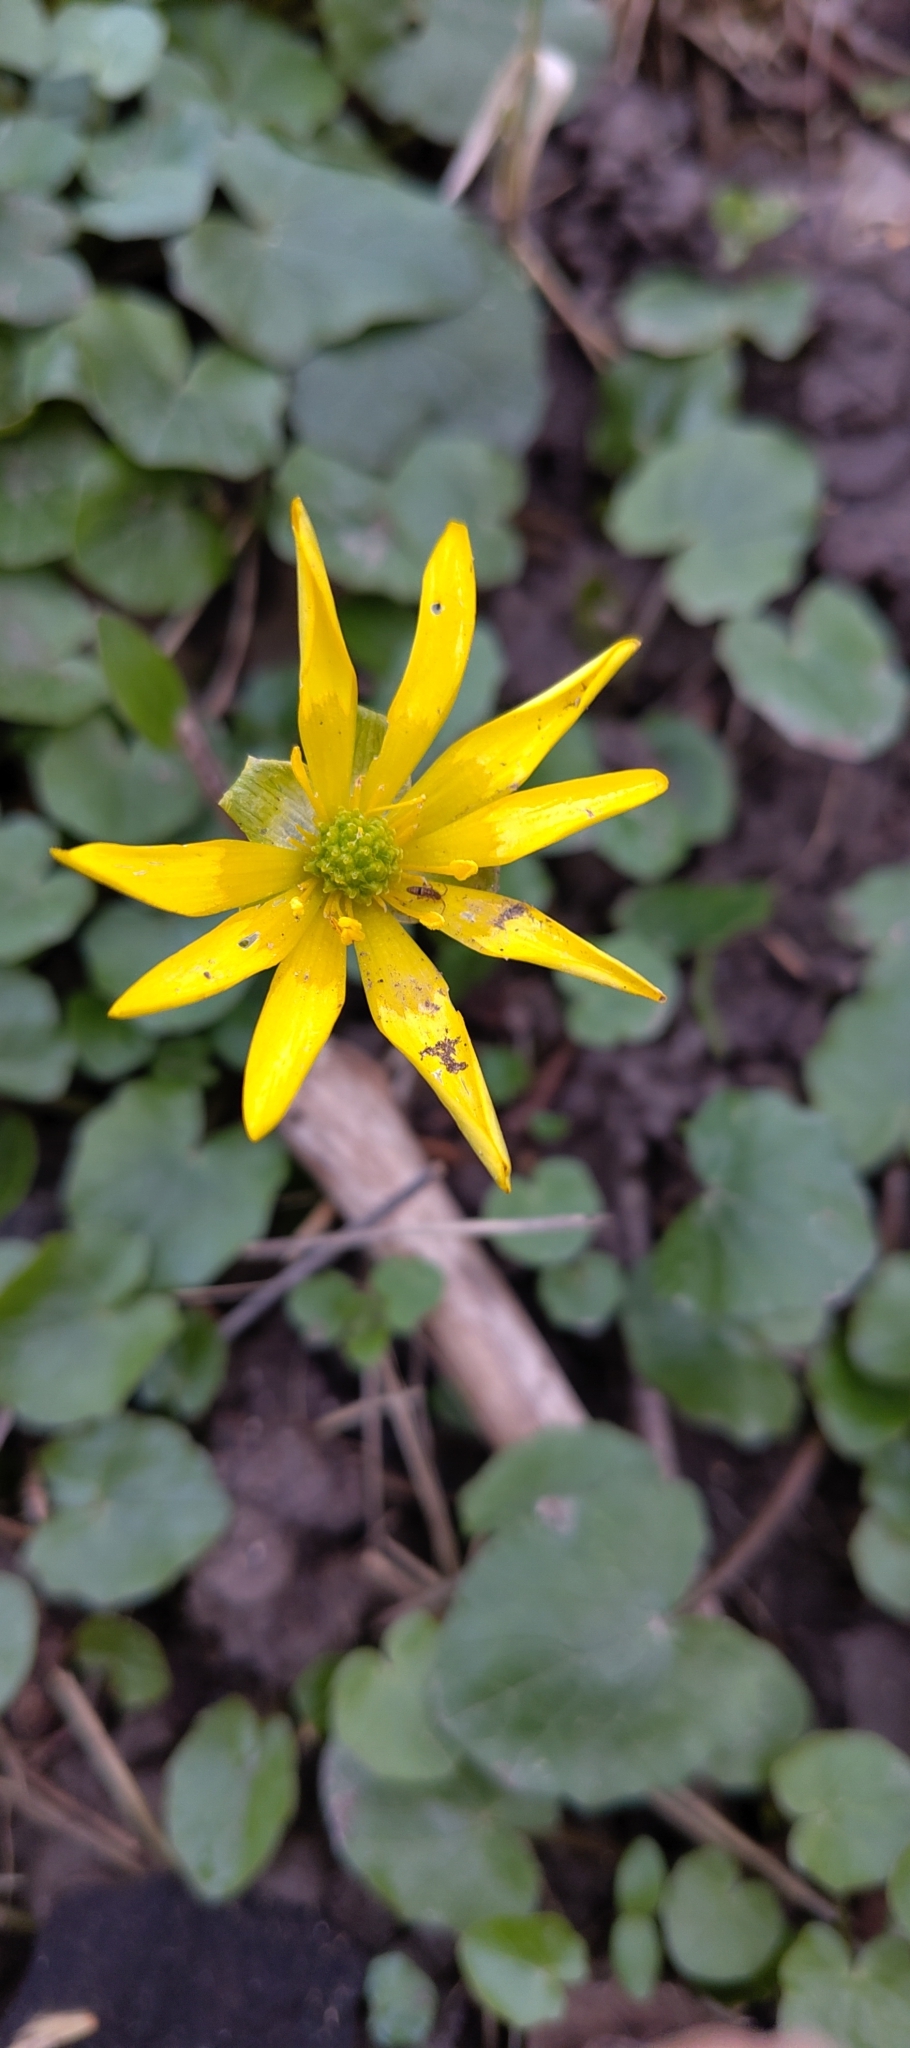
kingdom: Plantae
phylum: Tracheophyta
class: Magnoliopsida
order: Ranunculales
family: Ranunculaceae
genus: Ficaria
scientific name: Ficaria verna
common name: Lesser celandine
